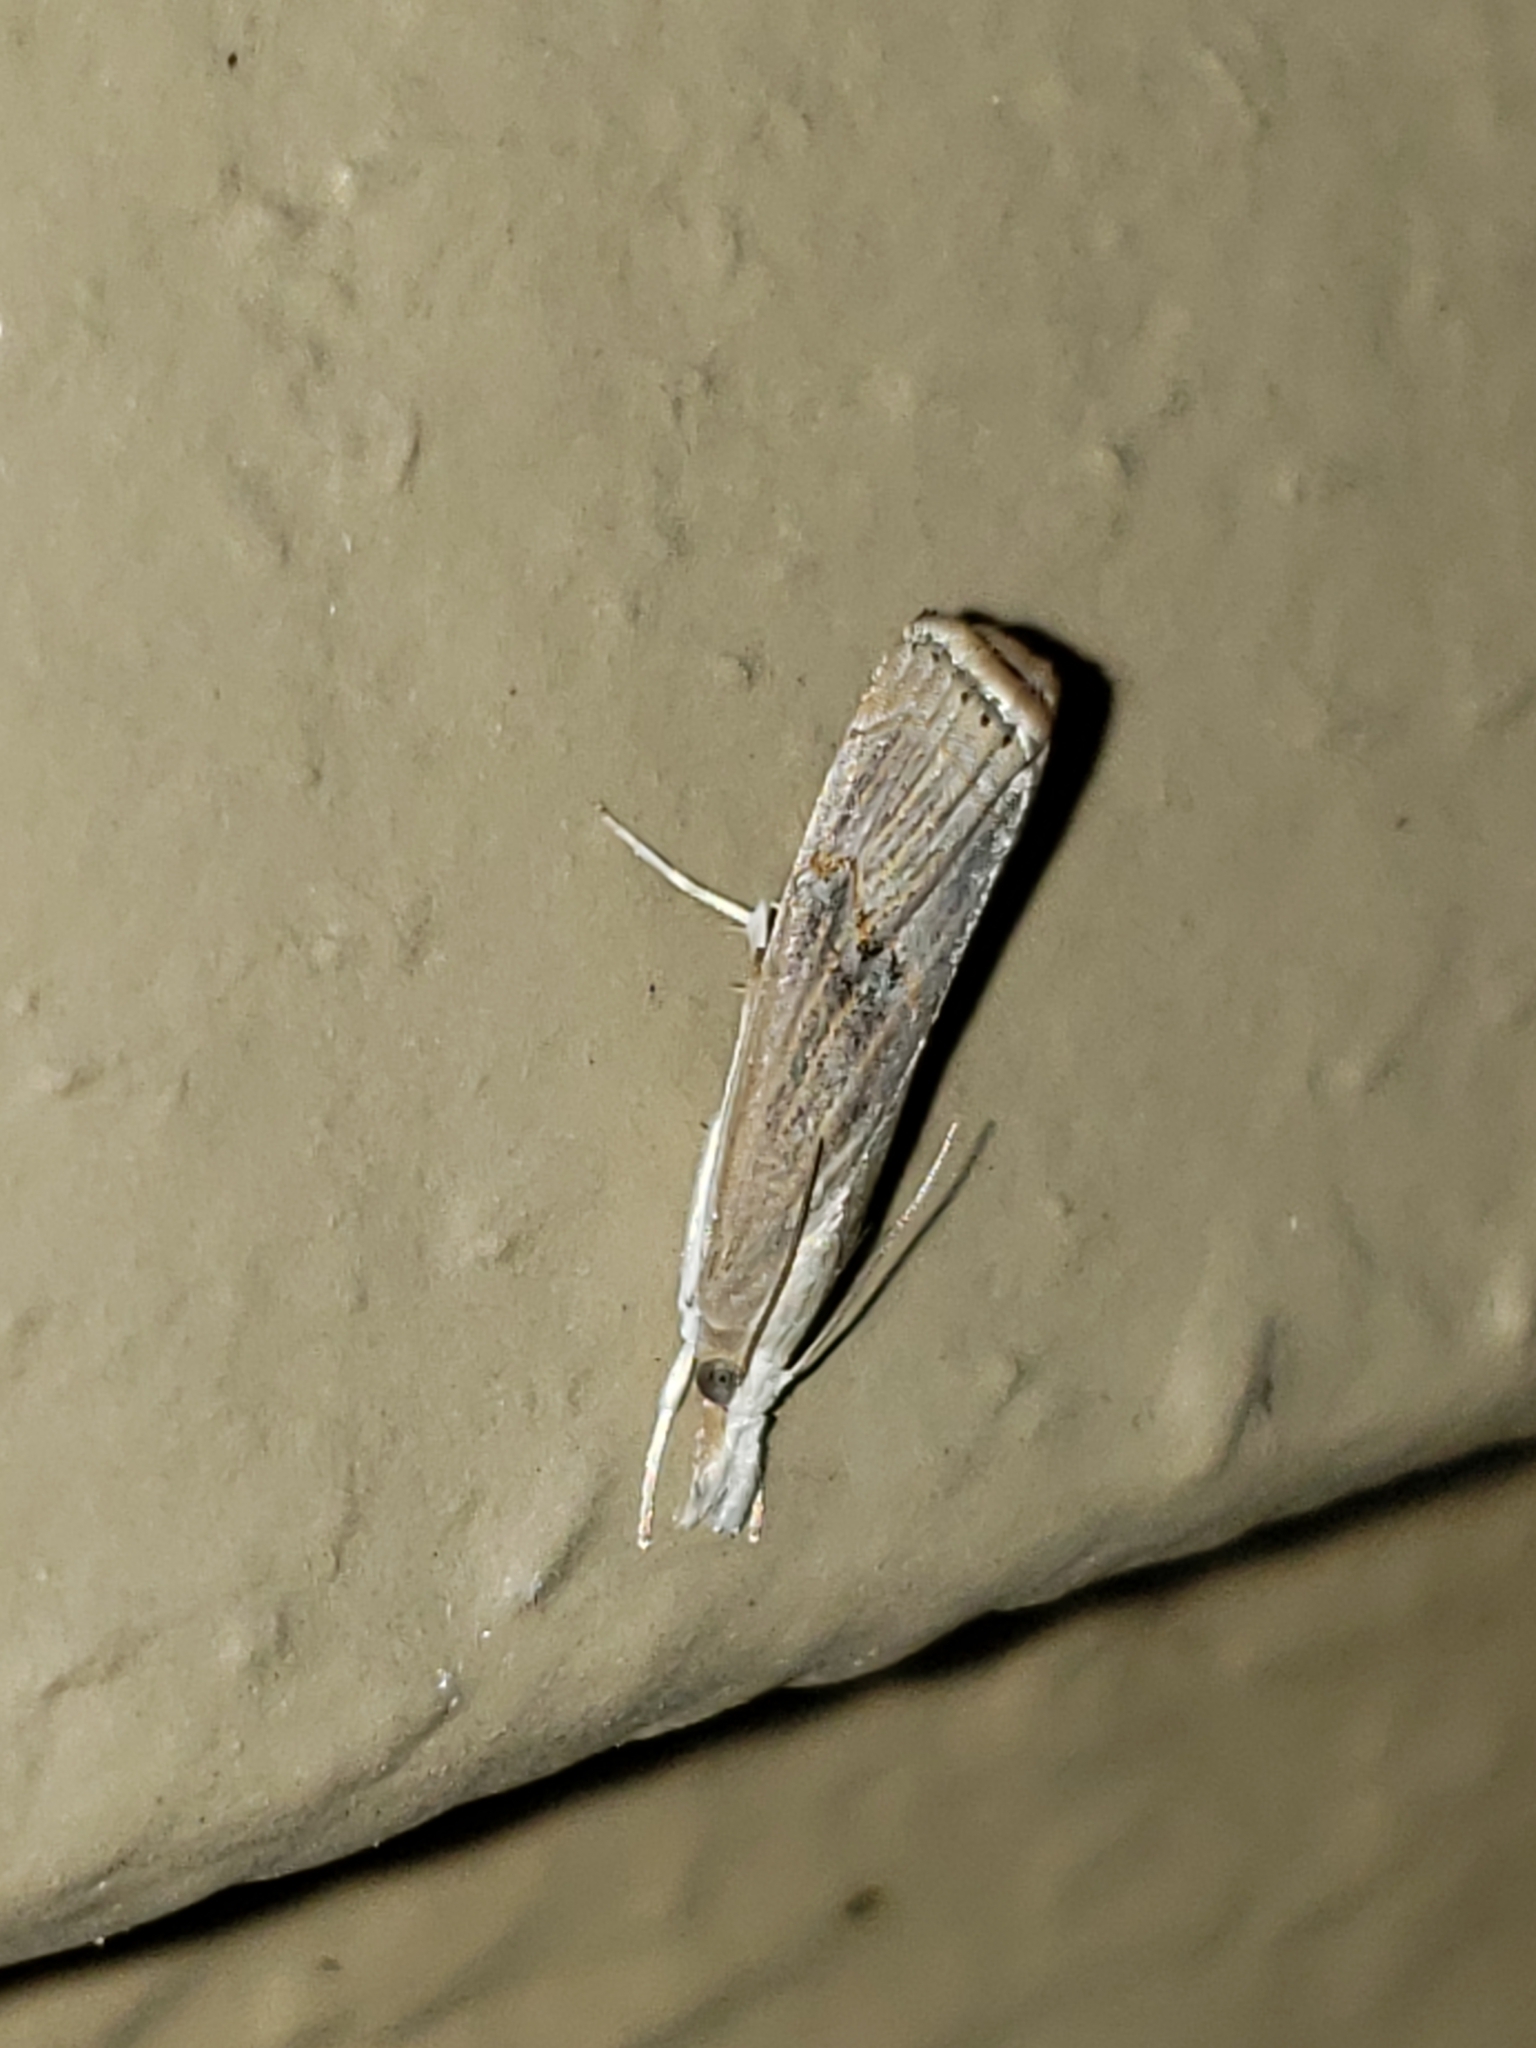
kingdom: Animalia
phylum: Arthropoda
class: Insecta
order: Lepidoptera
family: Crambidae
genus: Parapediasia
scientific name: Parapediasia teterellus
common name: Bluegrass webworm moth
